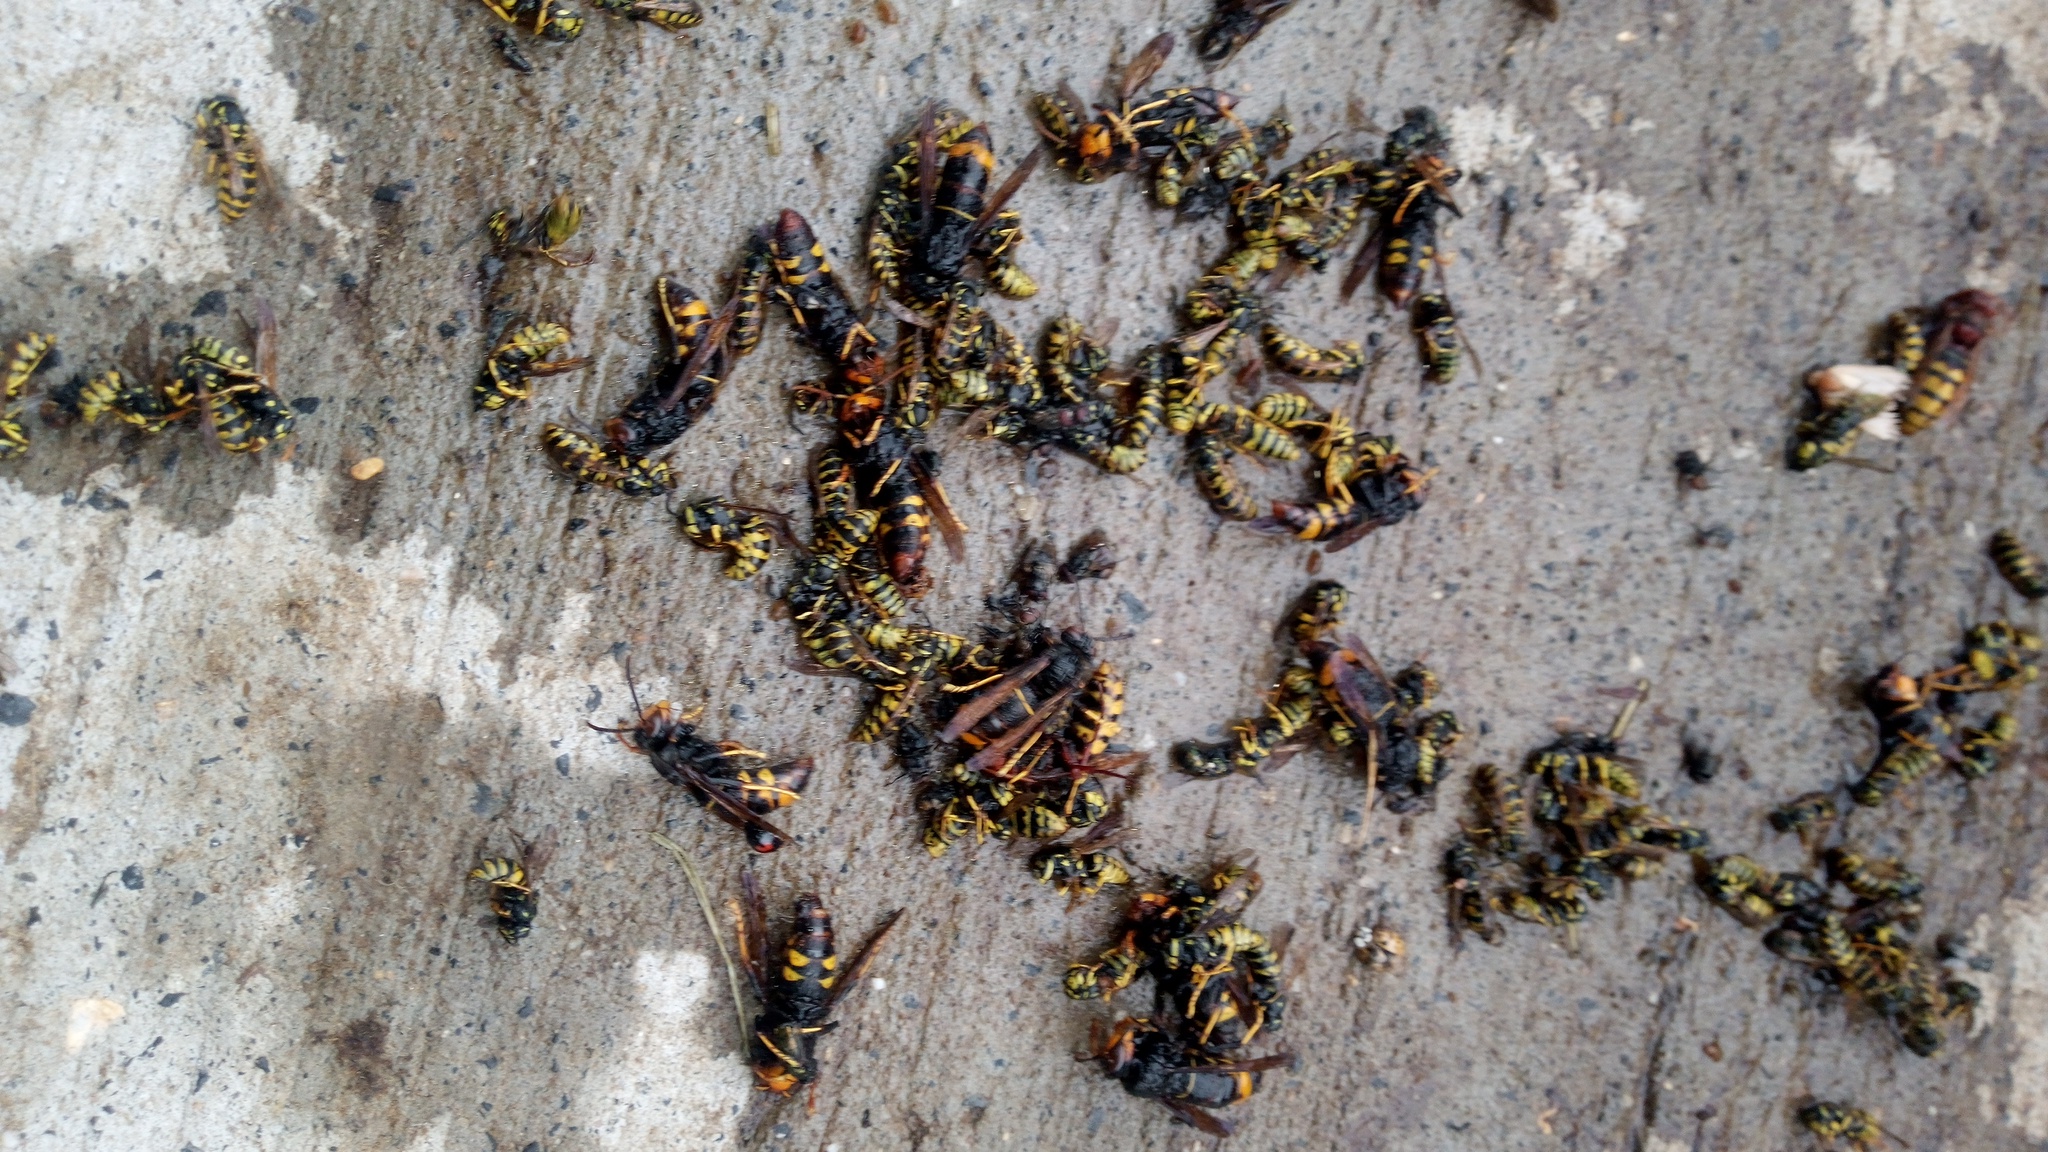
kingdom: Animalia
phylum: Arthropoda
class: Insecta
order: Hymenoptera
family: Vespidae
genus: Vespa
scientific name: Vespa velutina
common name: Asian hornet
